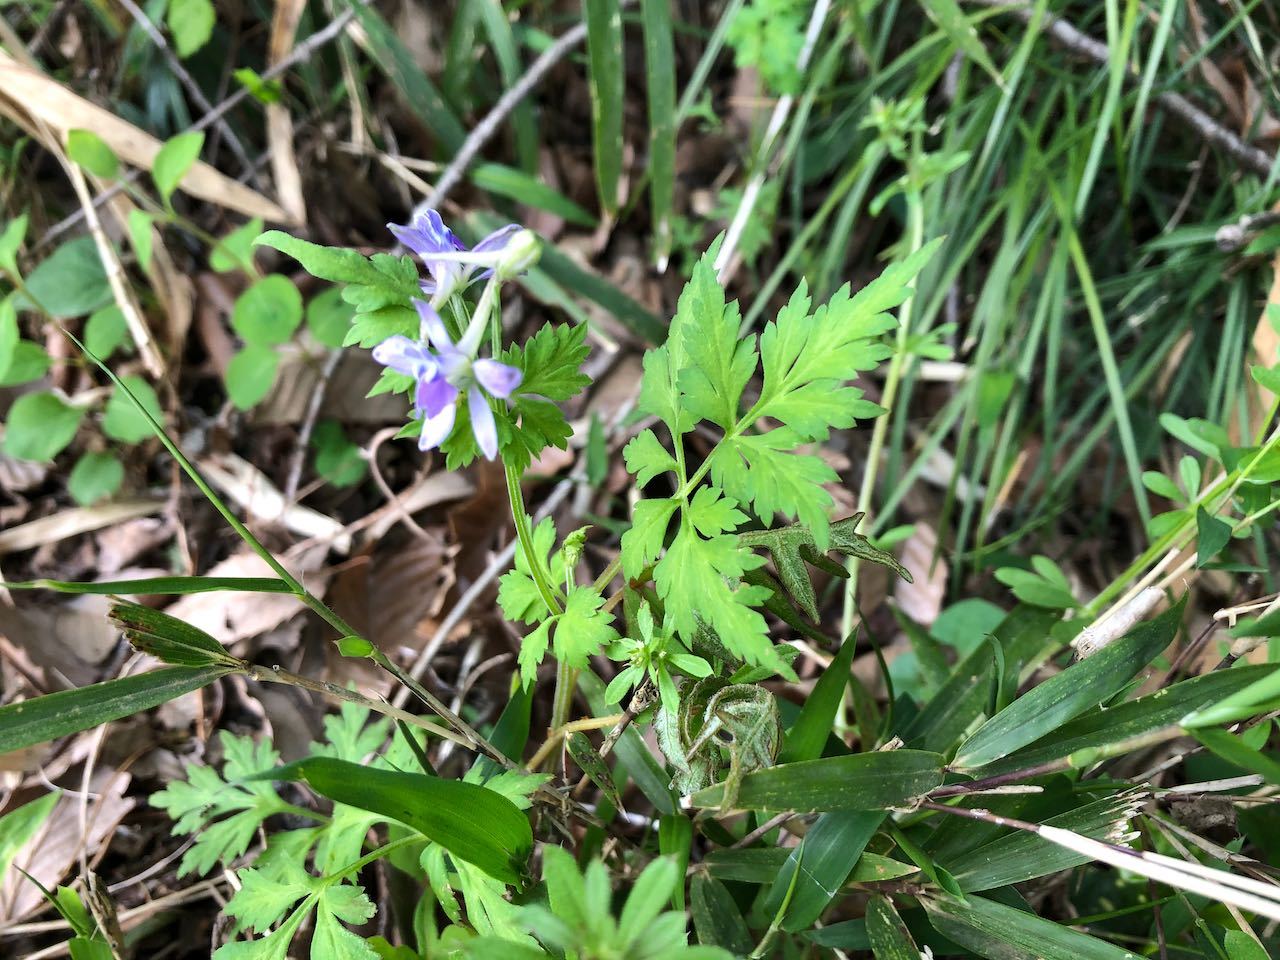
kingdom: Plantae
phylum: Tracheophyta
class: Magnoliopsida
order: Ranunculales
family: Ranunculaceae
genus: Delphinium
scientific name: Delphinium anthriscifolium
